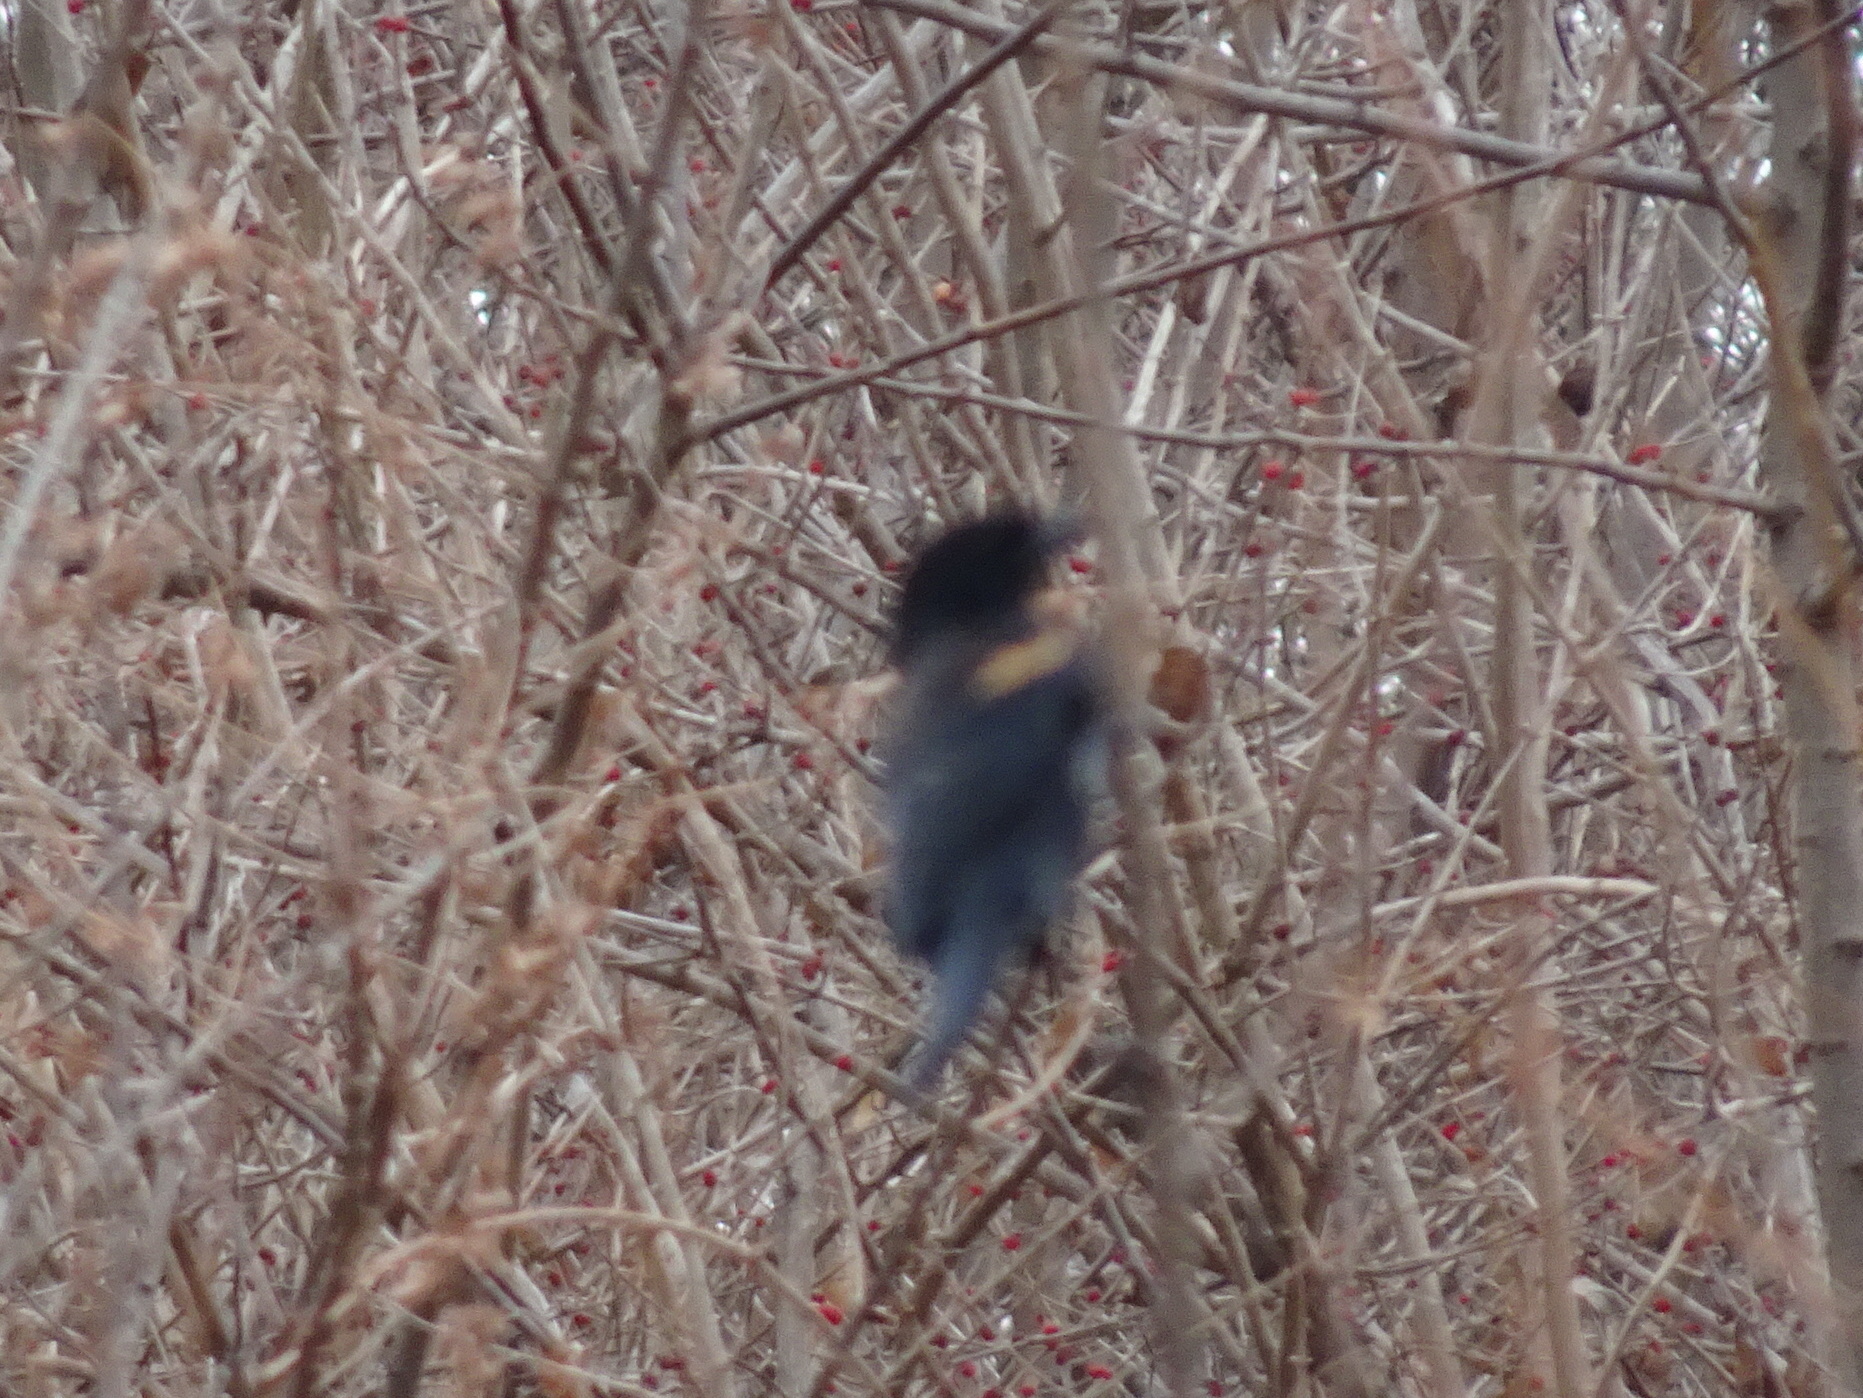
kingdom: Animalia
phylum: Chordata
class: Aves
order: Passeriformes
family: Icteridae
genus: Agelaius
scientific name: Agelaius phoeniceus
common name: Red-winged blackbird
